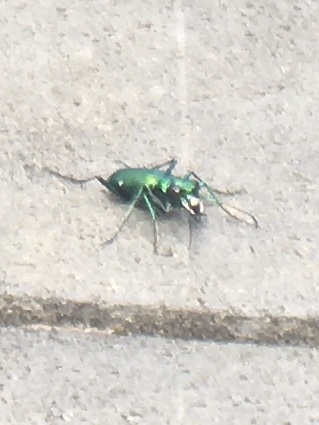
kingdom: Animalia
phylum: Arthropoda
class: Insecta
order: Coleoptera
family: Carabidae
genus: Cicindela
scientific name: Cicindela sexguttata
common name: Six-spotted tiger beetle
